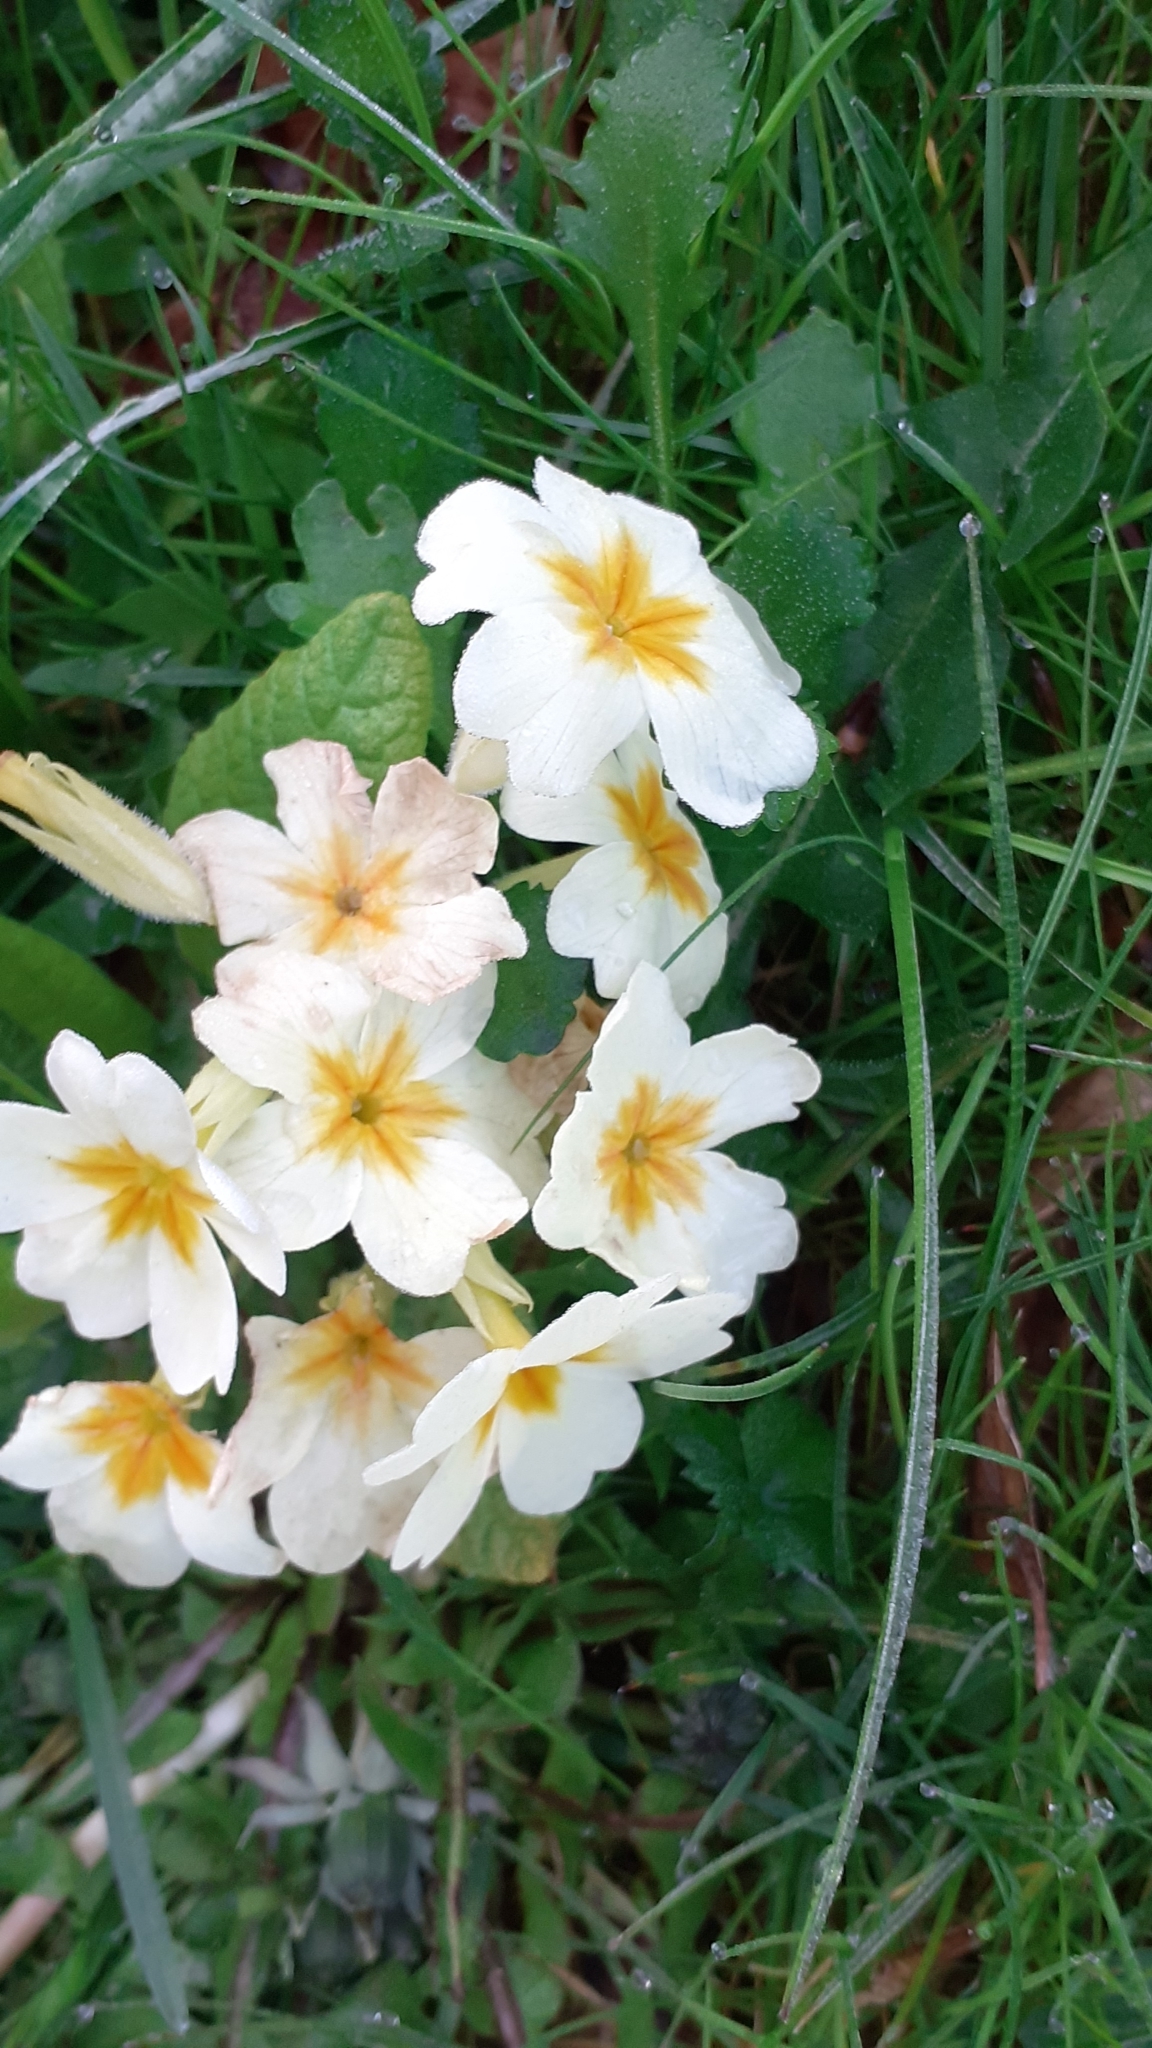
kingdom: Plantae
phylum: Tracheophyta
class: Magnoliopsida
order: Ericales
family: Primulaceae
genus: Primula
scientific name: Primula vulgaris
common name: Primrose
